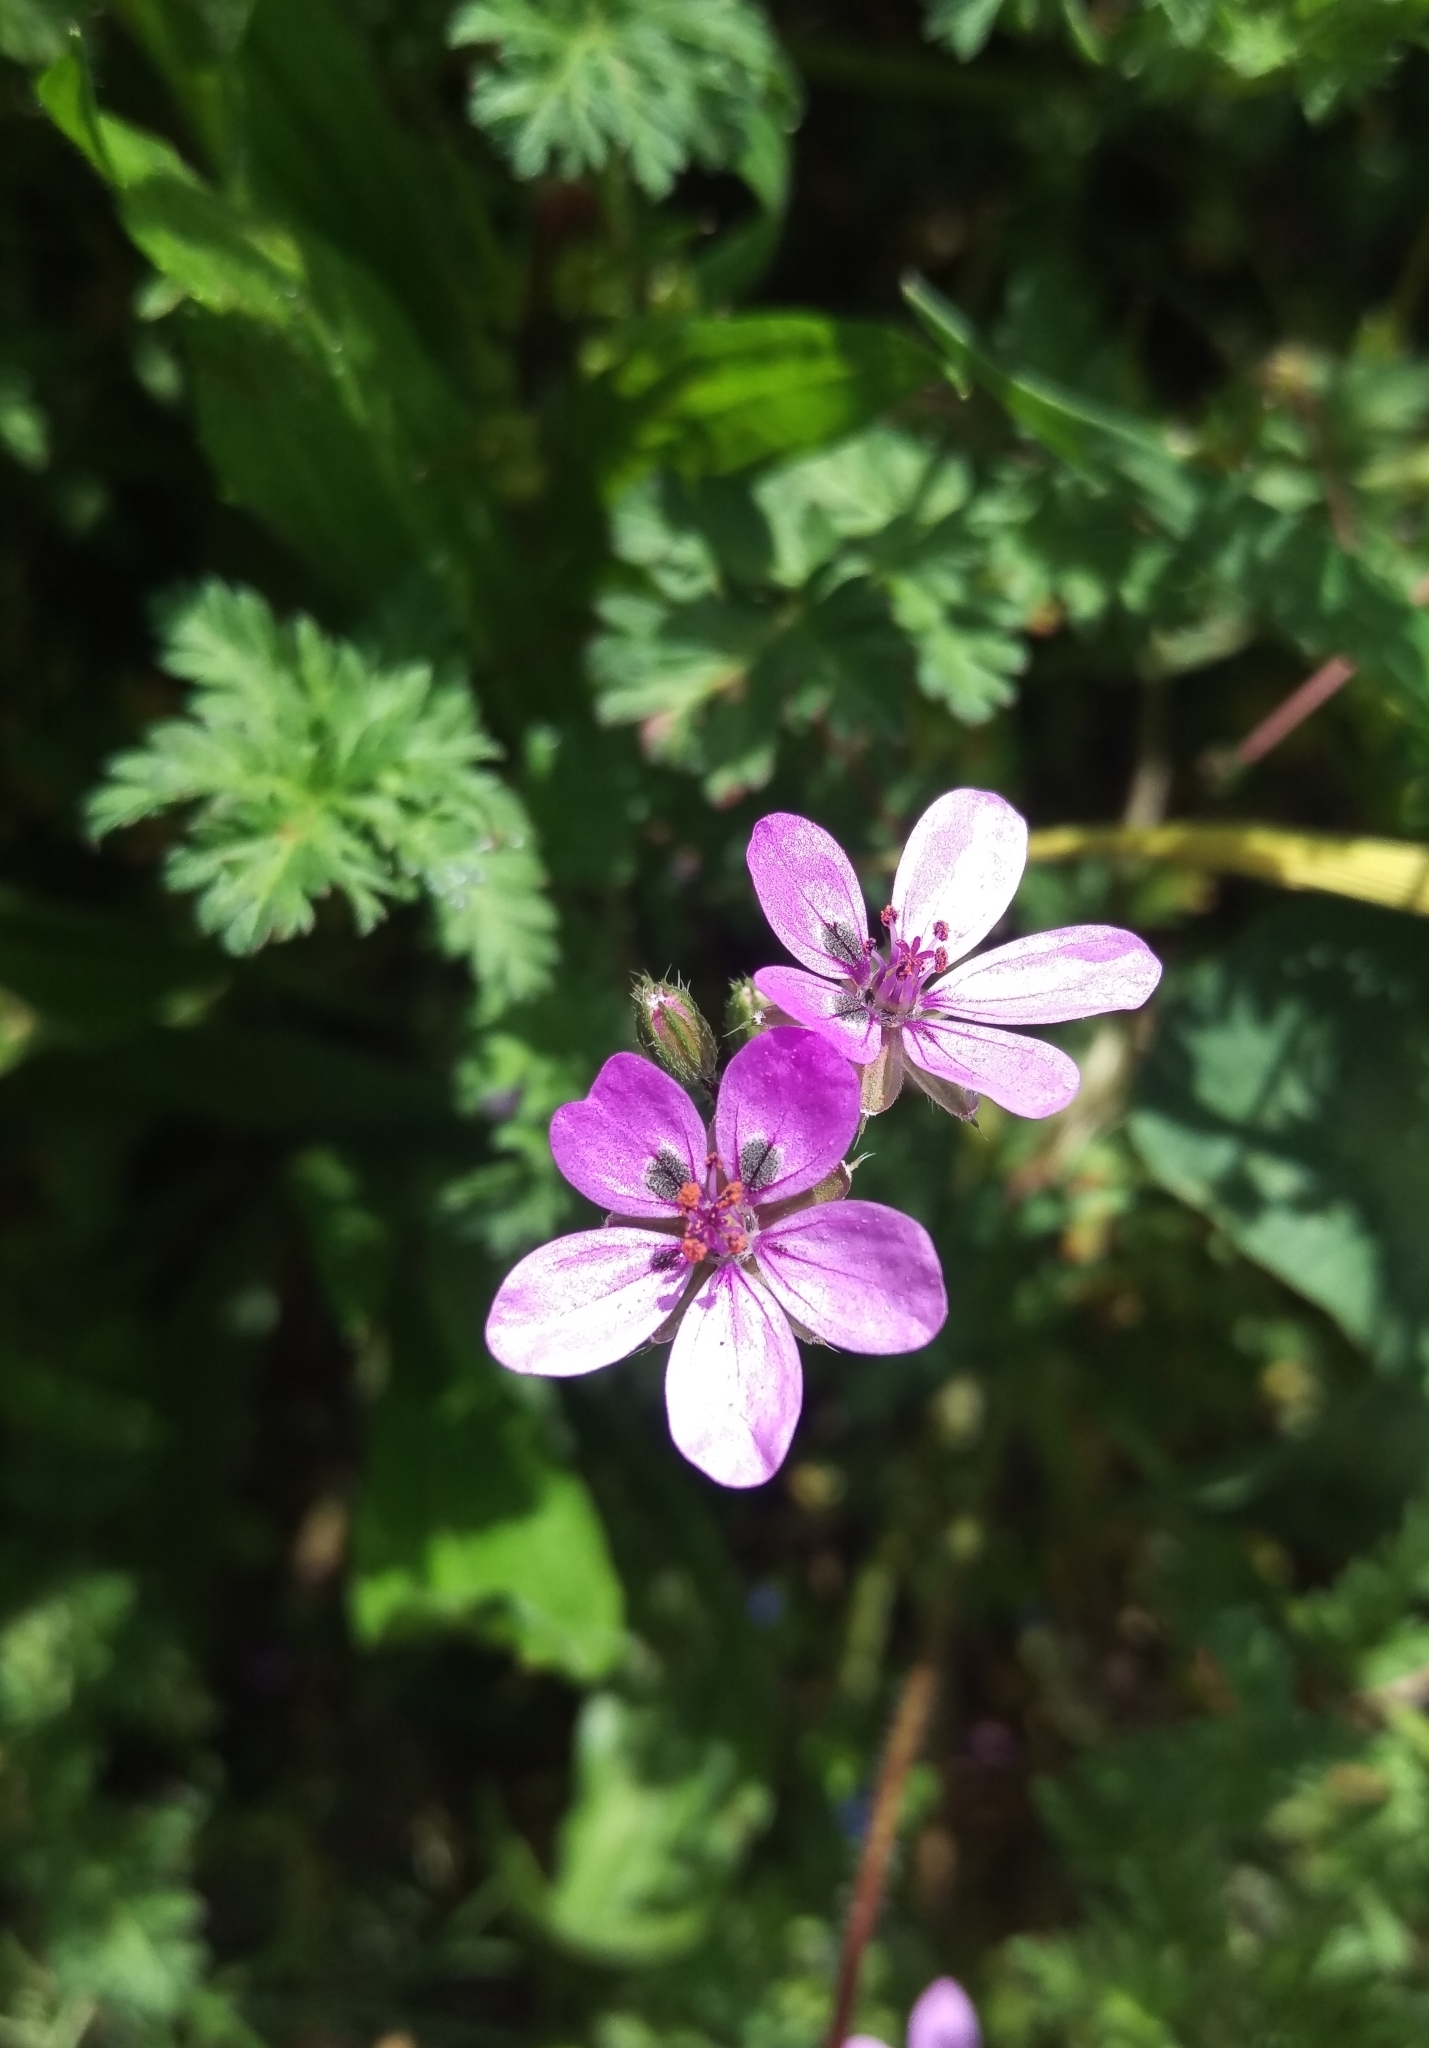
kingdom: Plantae
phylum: Tracheophyta
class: Magnoliopsida
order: Geraniales
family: Geraniaceae
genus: Erodium
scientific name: Erodium cicutarium
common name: Common stork's-bill
